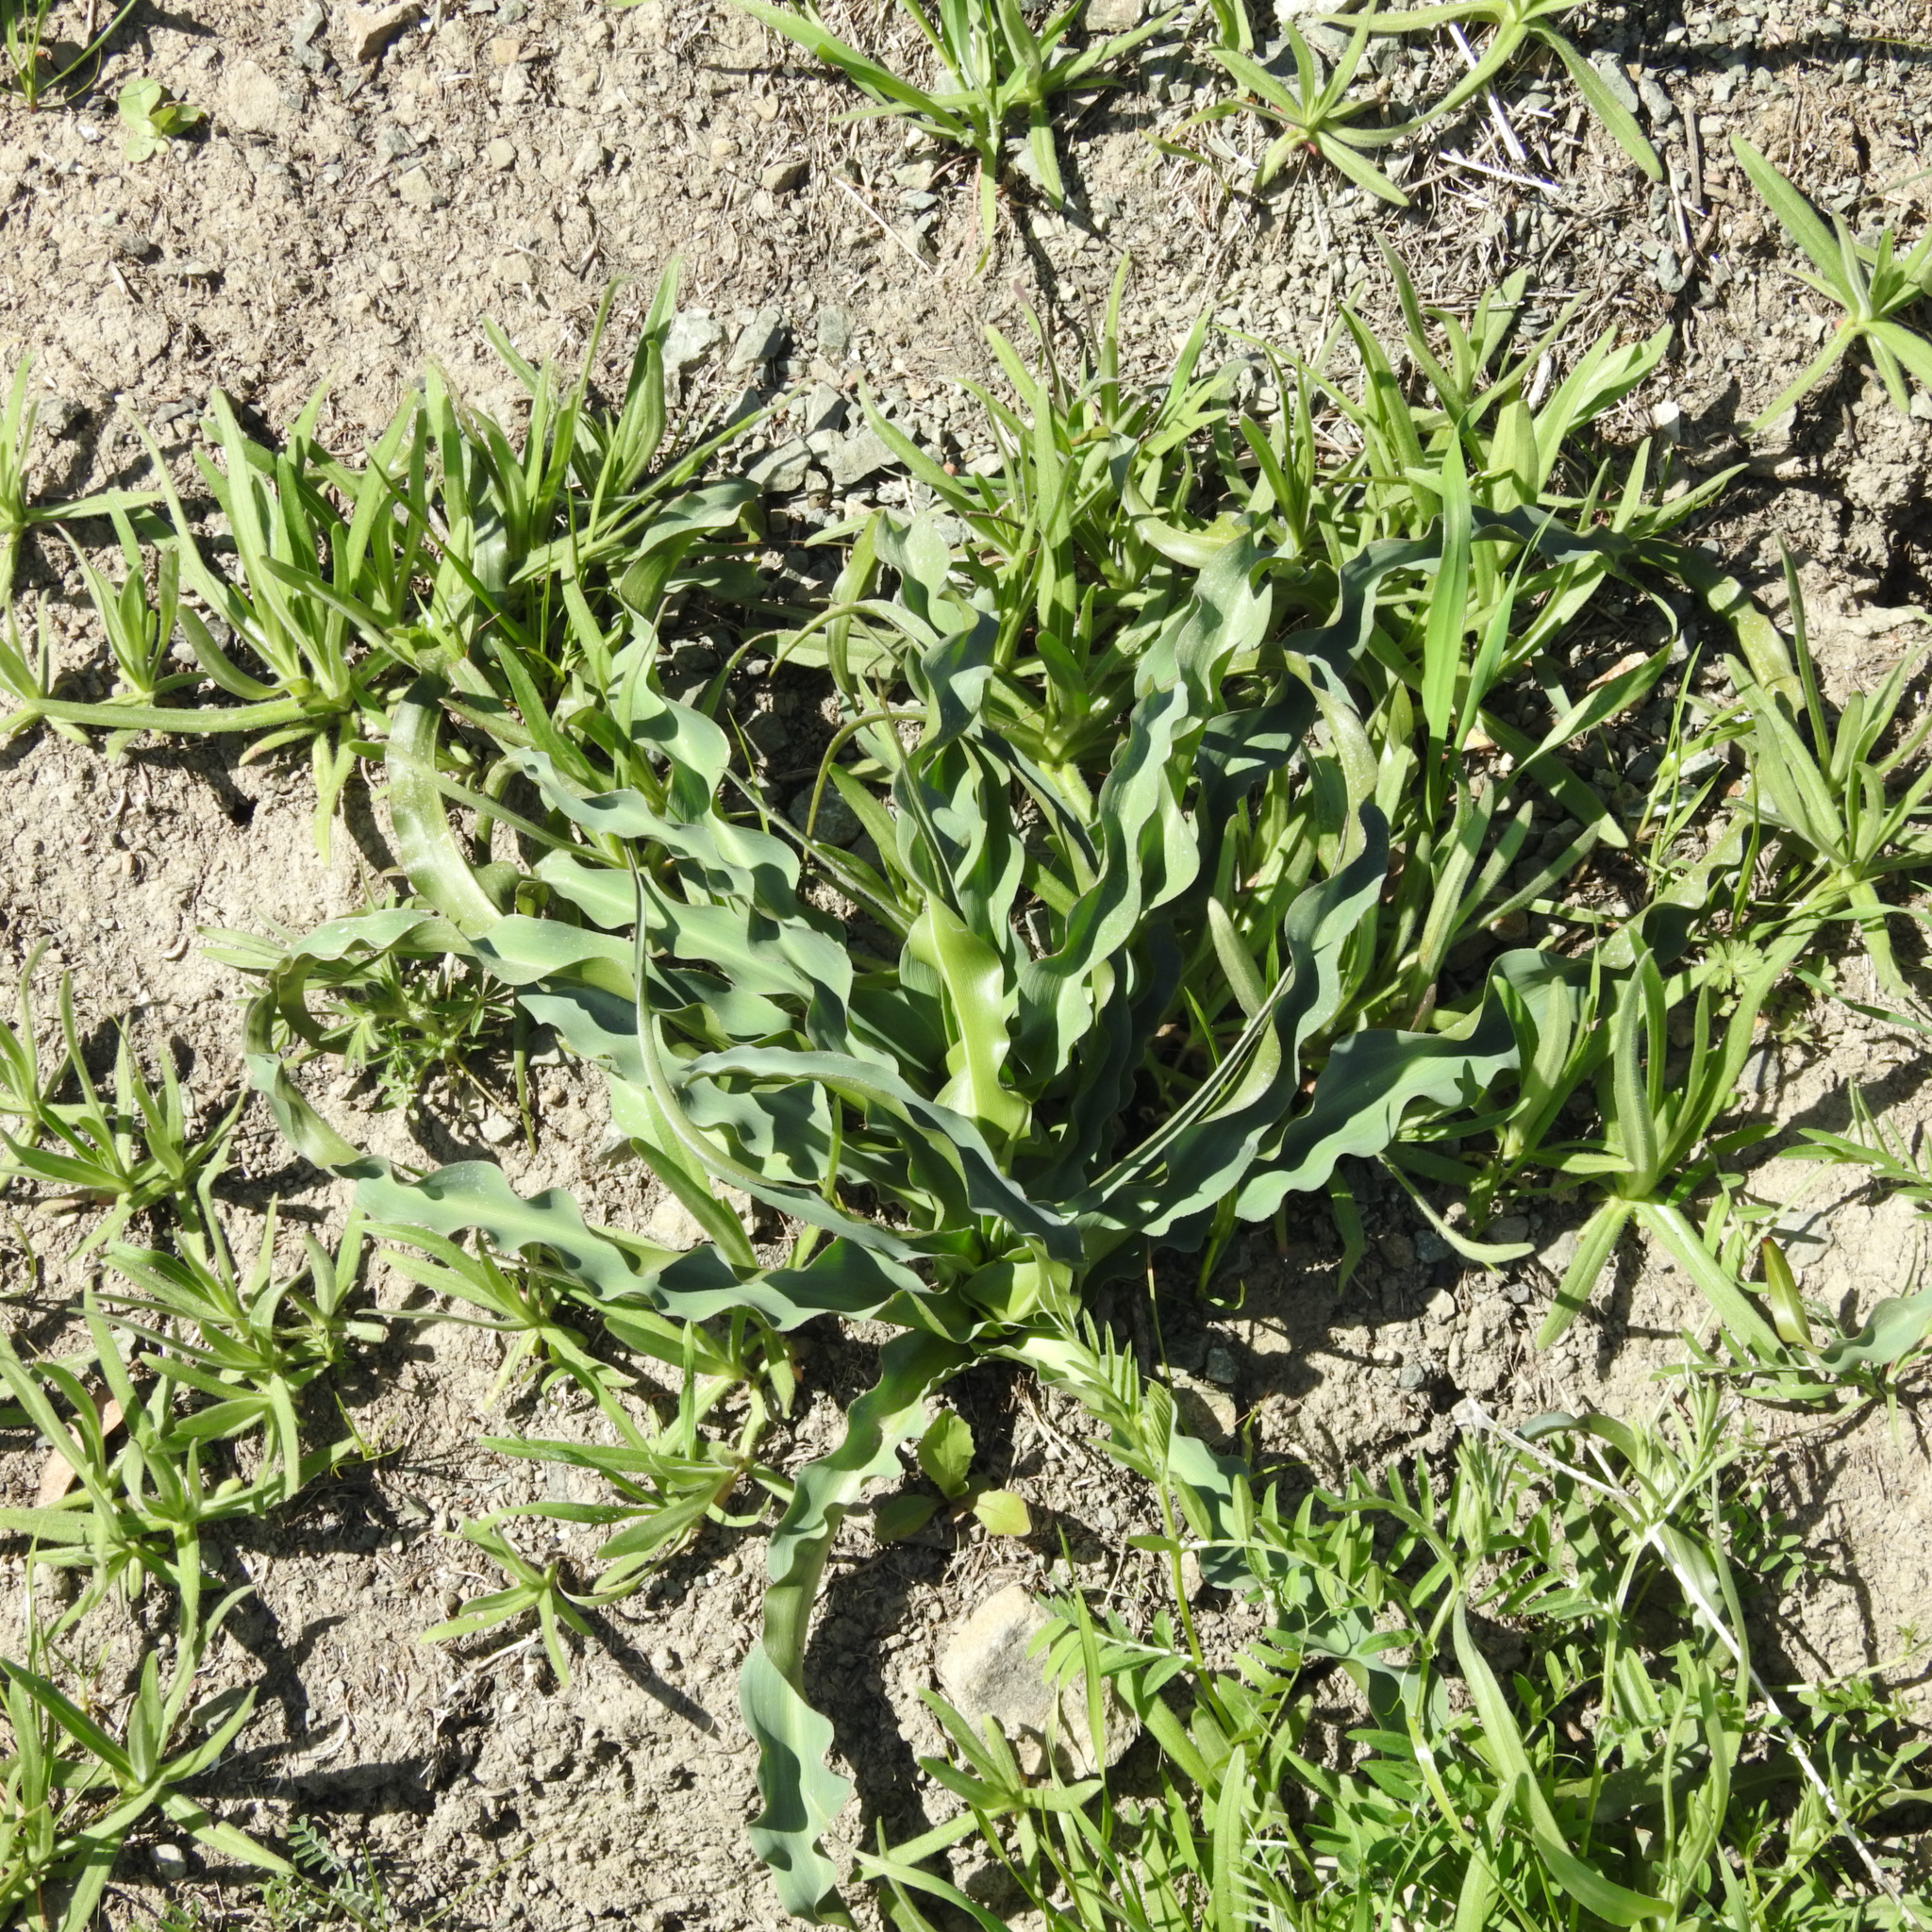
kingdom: Plantae
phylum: Tracheophyta
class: Liliopsida
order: Asparagales
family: Asparagaceae
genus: Chlorogalum
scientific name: Chlorogalum pomeridianum
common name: Amole
